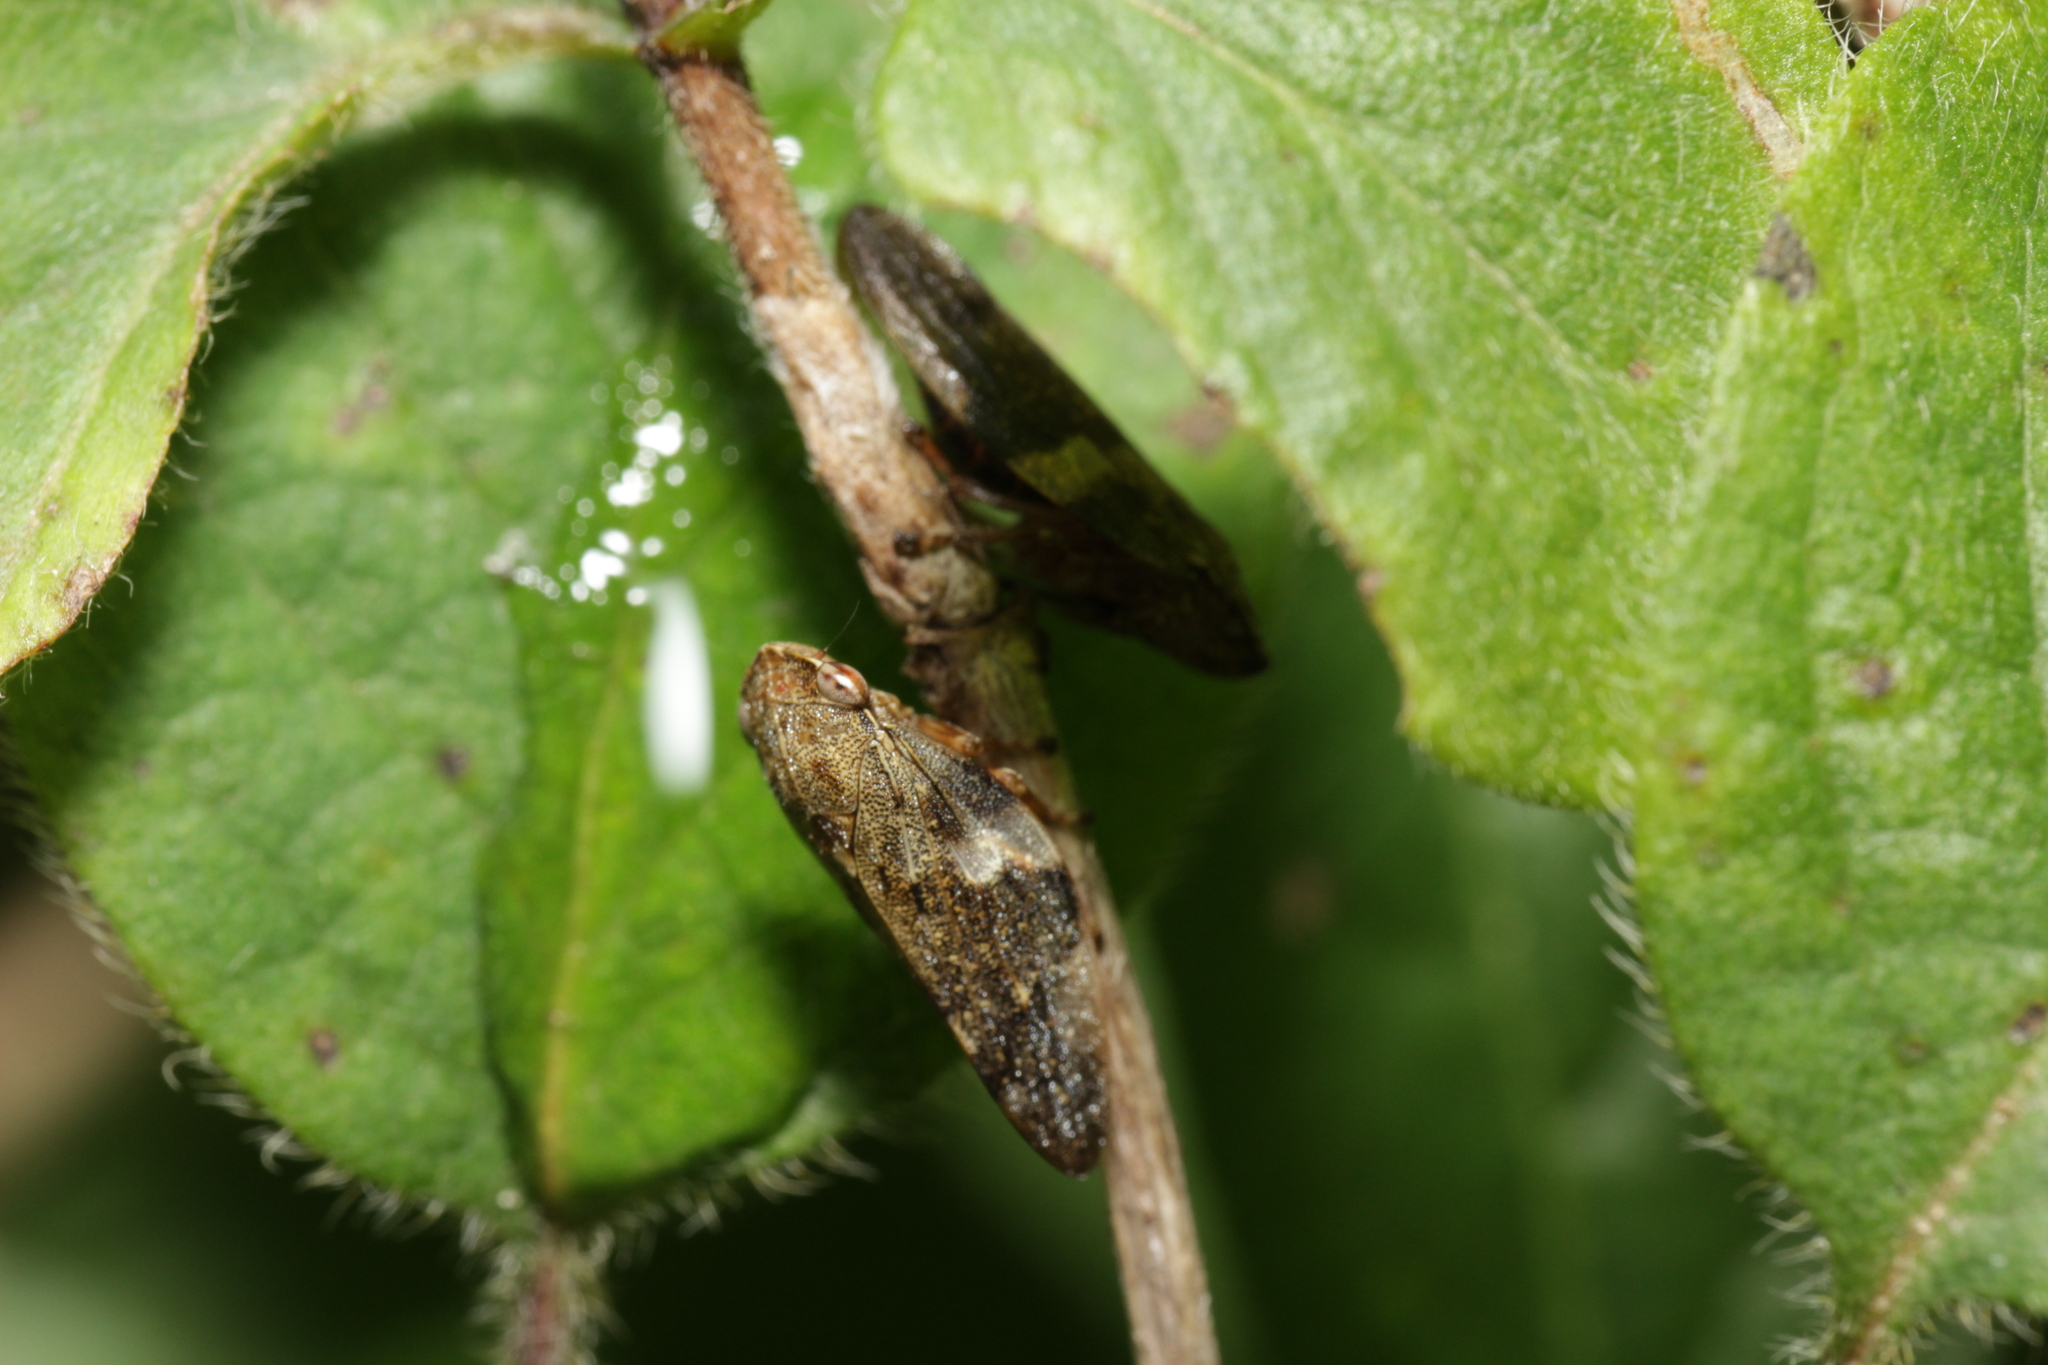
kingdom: Animalia
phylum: Arthropoda
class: Insecta
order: Hemiptera
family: Aphrophoridae
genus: Aphrophora
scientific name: Aphrophora alni
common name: European alder spittlebug
